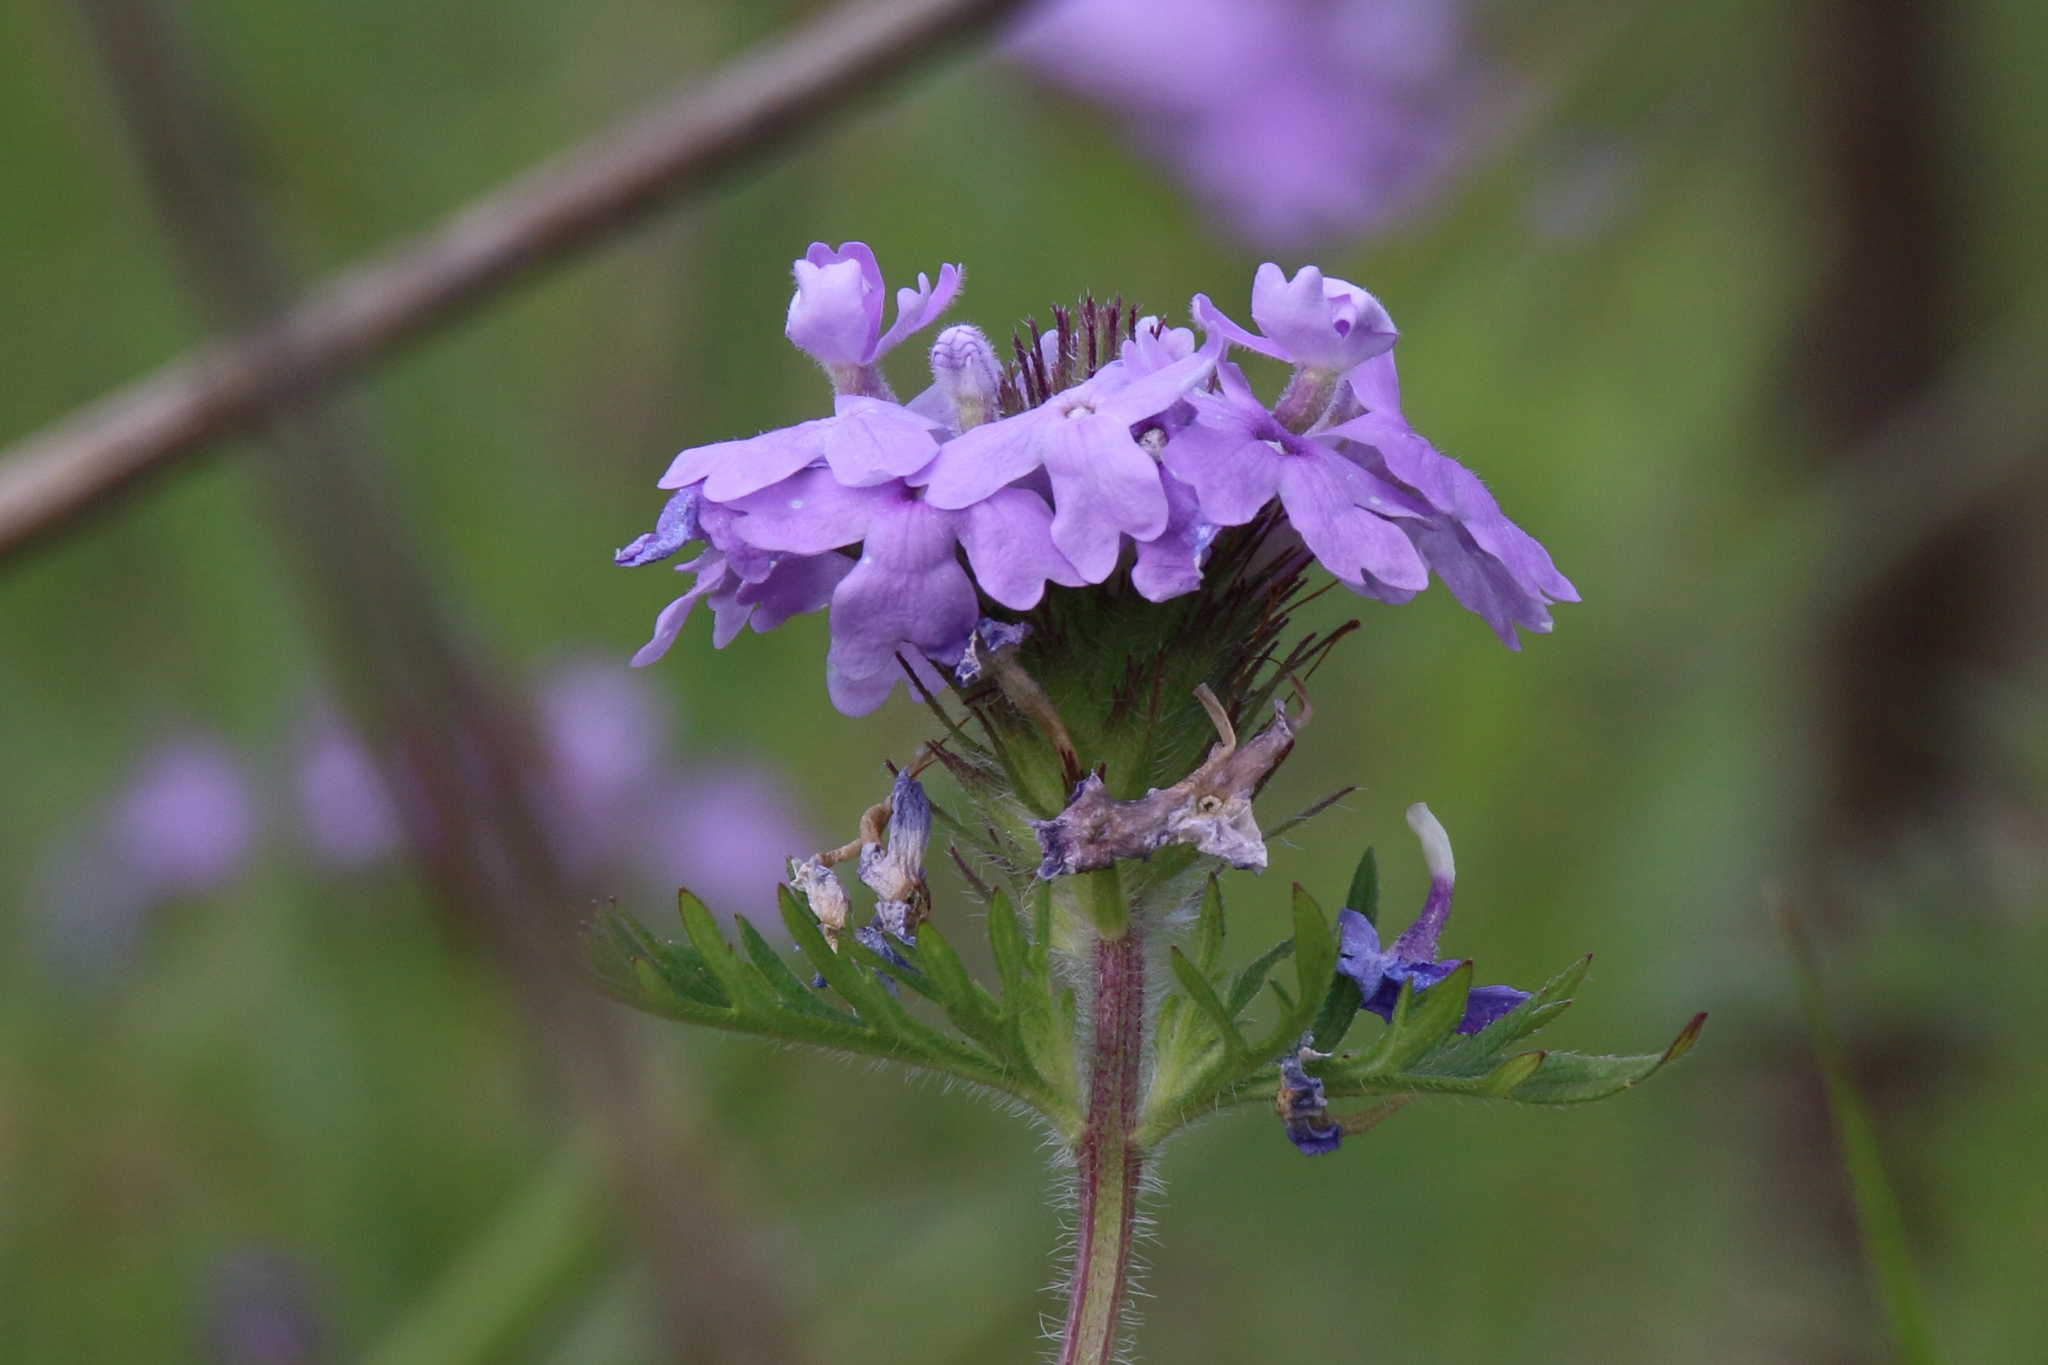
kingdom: Plantae
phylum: Tracheophyta
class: Magnoliopsida
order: Lamiales
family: Verbenaceae
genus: Verbena
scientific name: Verbena bipinnatifida
